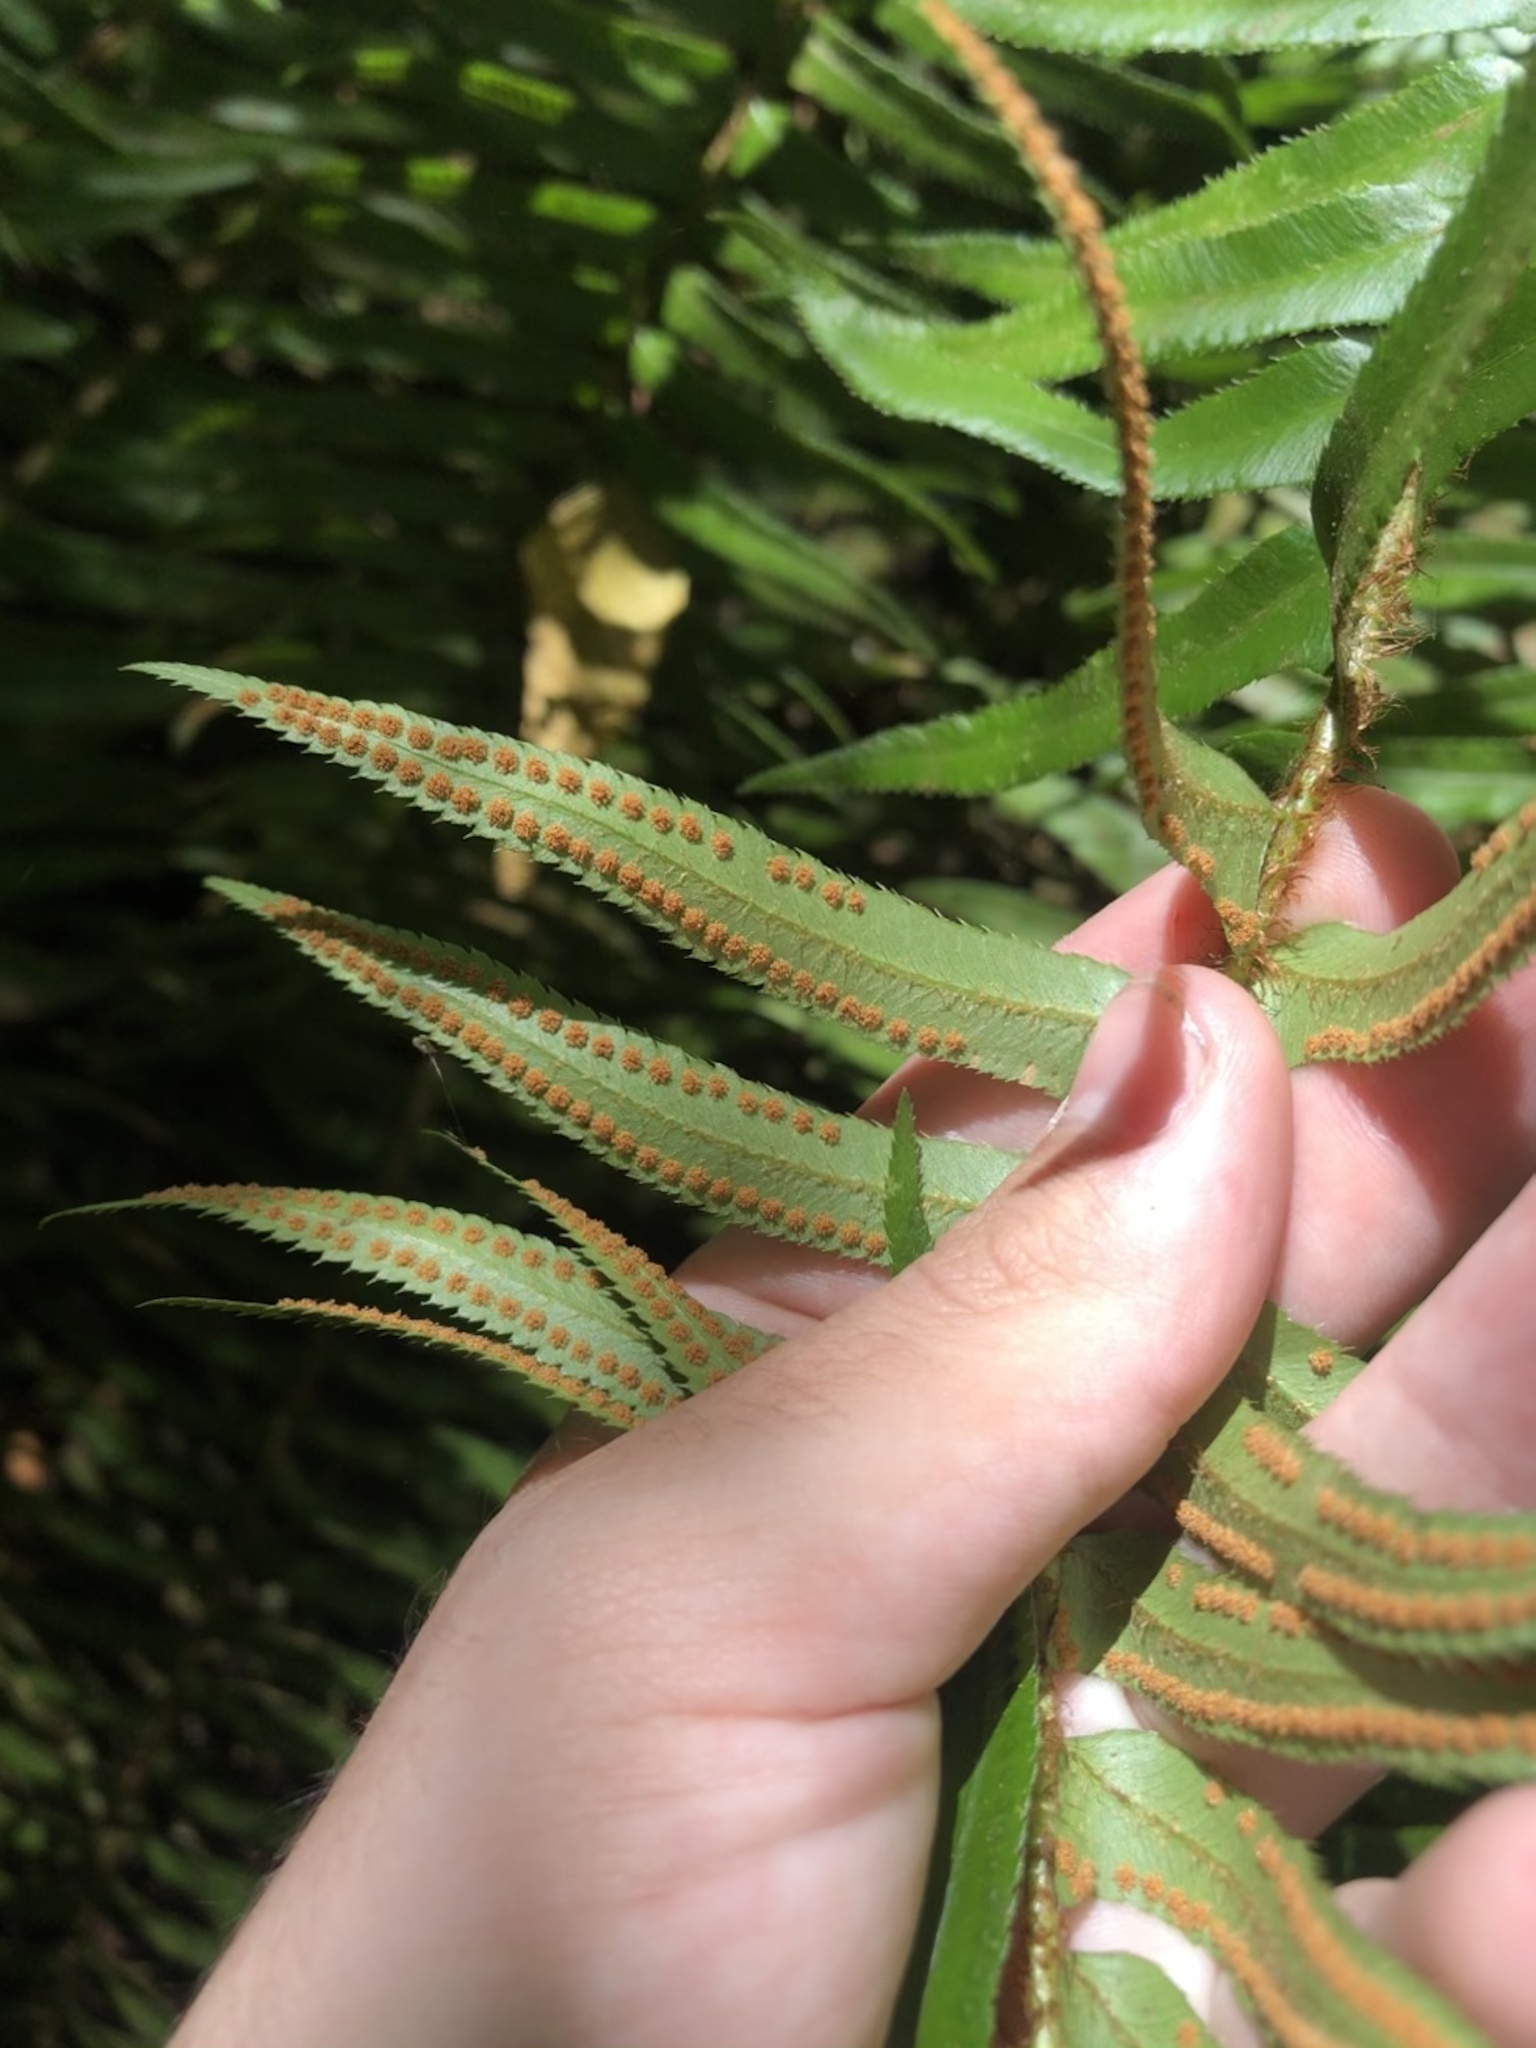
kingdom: Plantae
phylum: Tracheophyta
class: Polypodiopsida
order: Polypodiales
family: Dryopteridaceae
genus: Polystichum
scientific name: Polystichum munitum
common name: Western sword-fern
